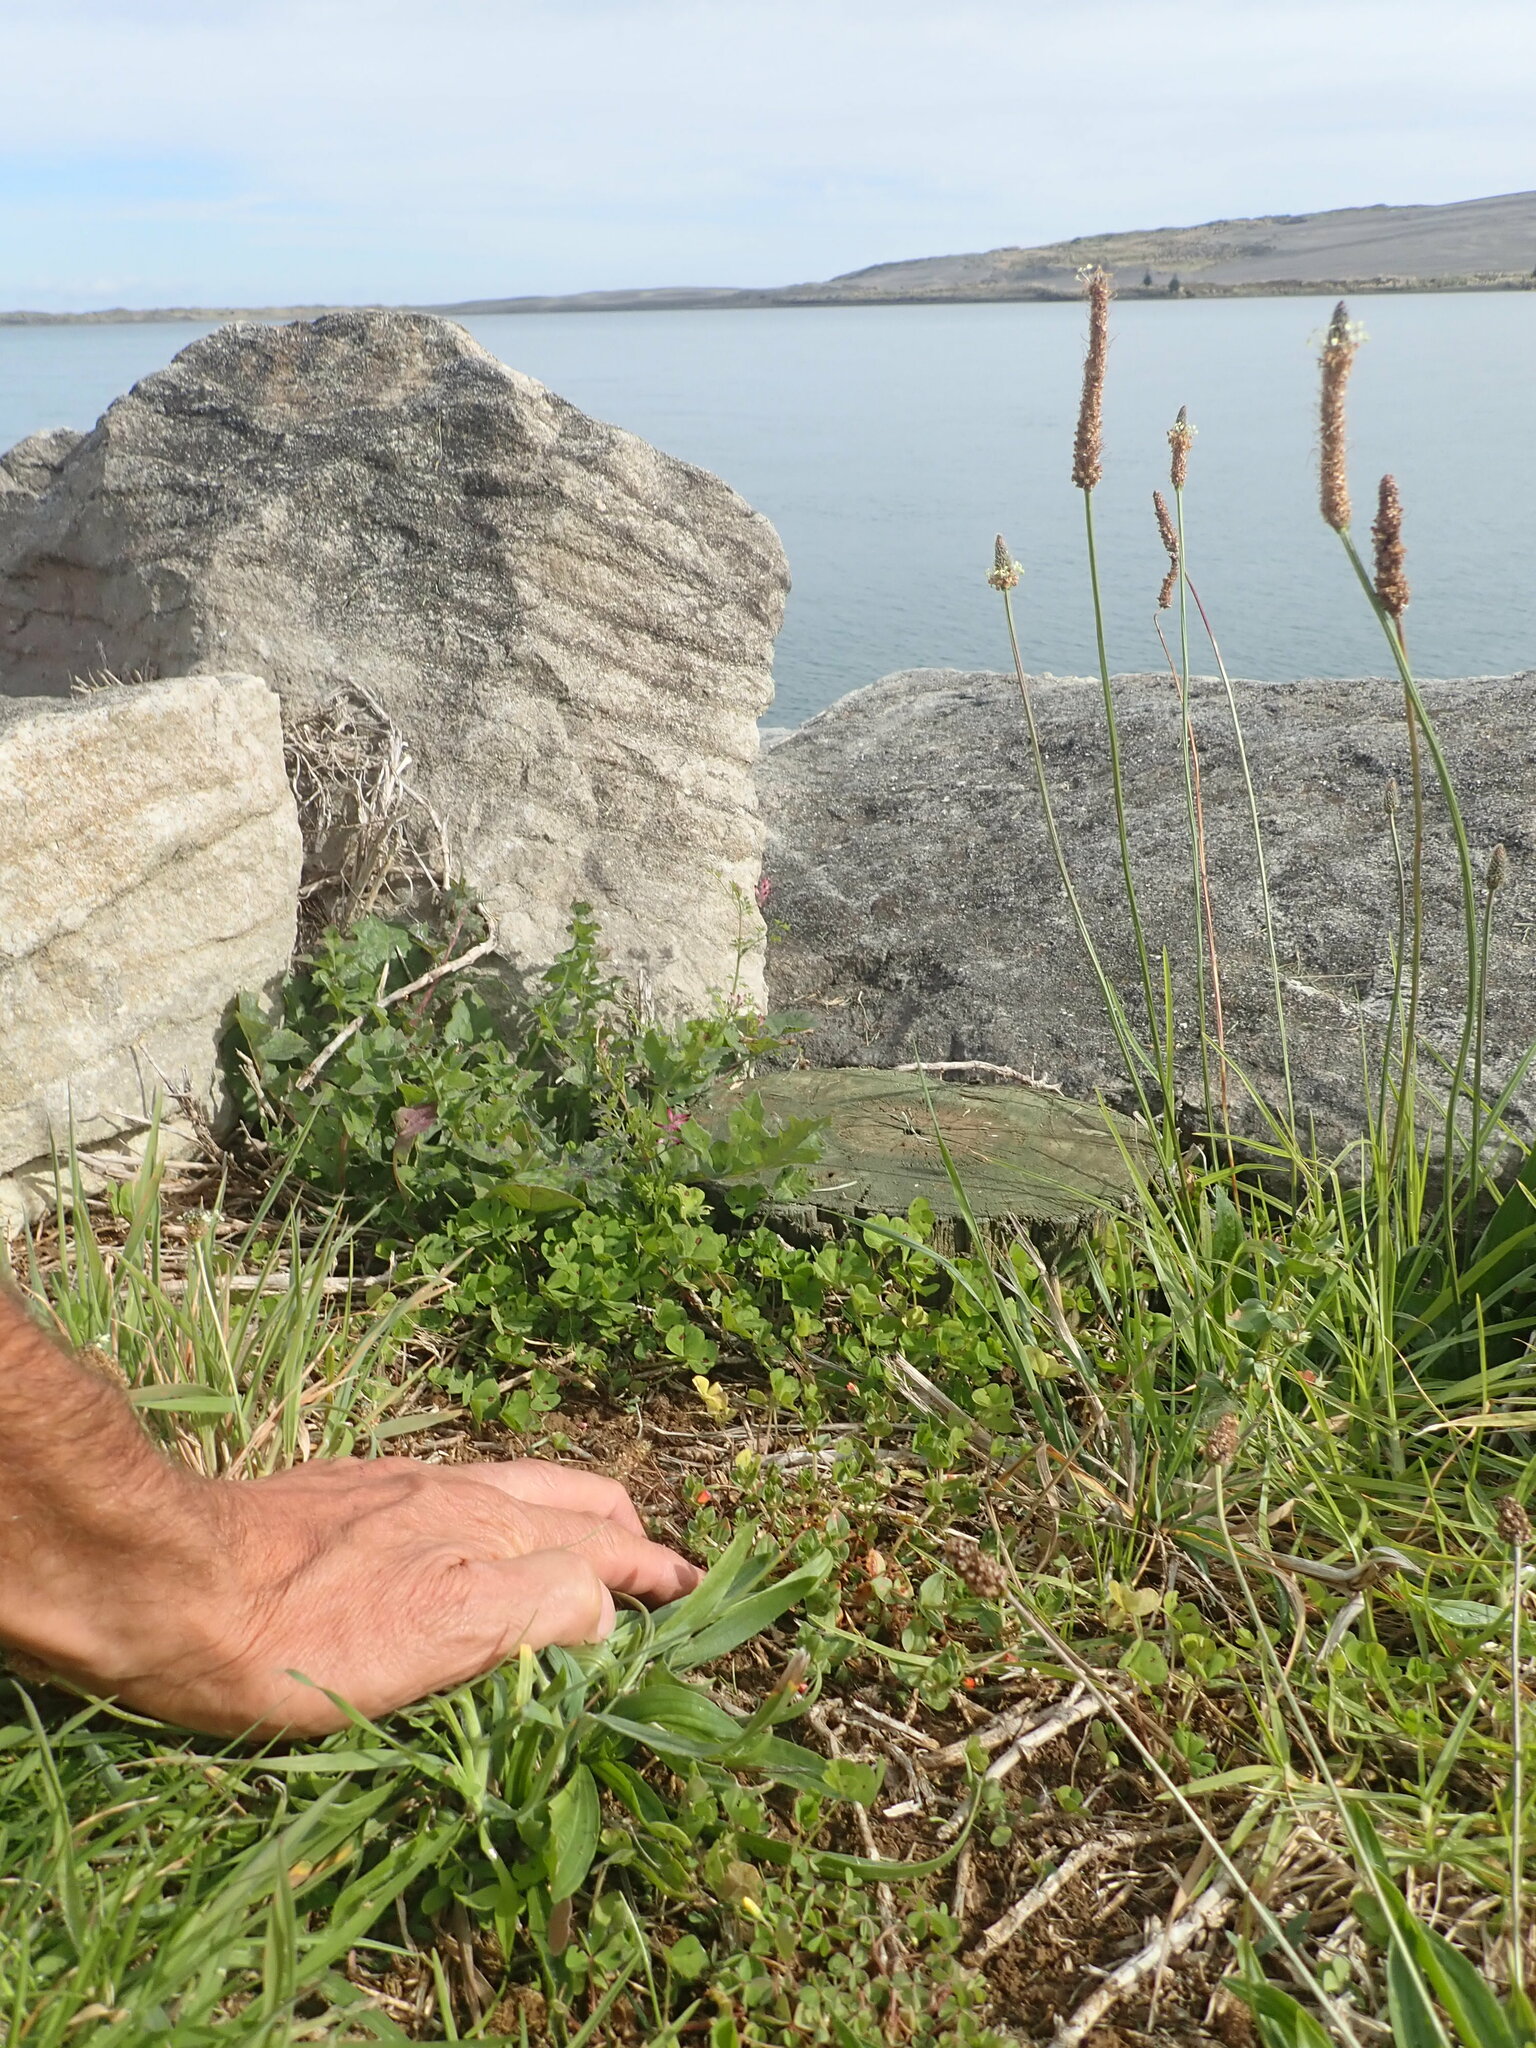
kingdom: Plantae
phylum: Tracheophyta
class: Magnoliopsida
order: Ranunculales
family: Papaveraceae
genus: Fumaria
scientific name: Fumaria muralis
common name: Common ramping-fumitory
